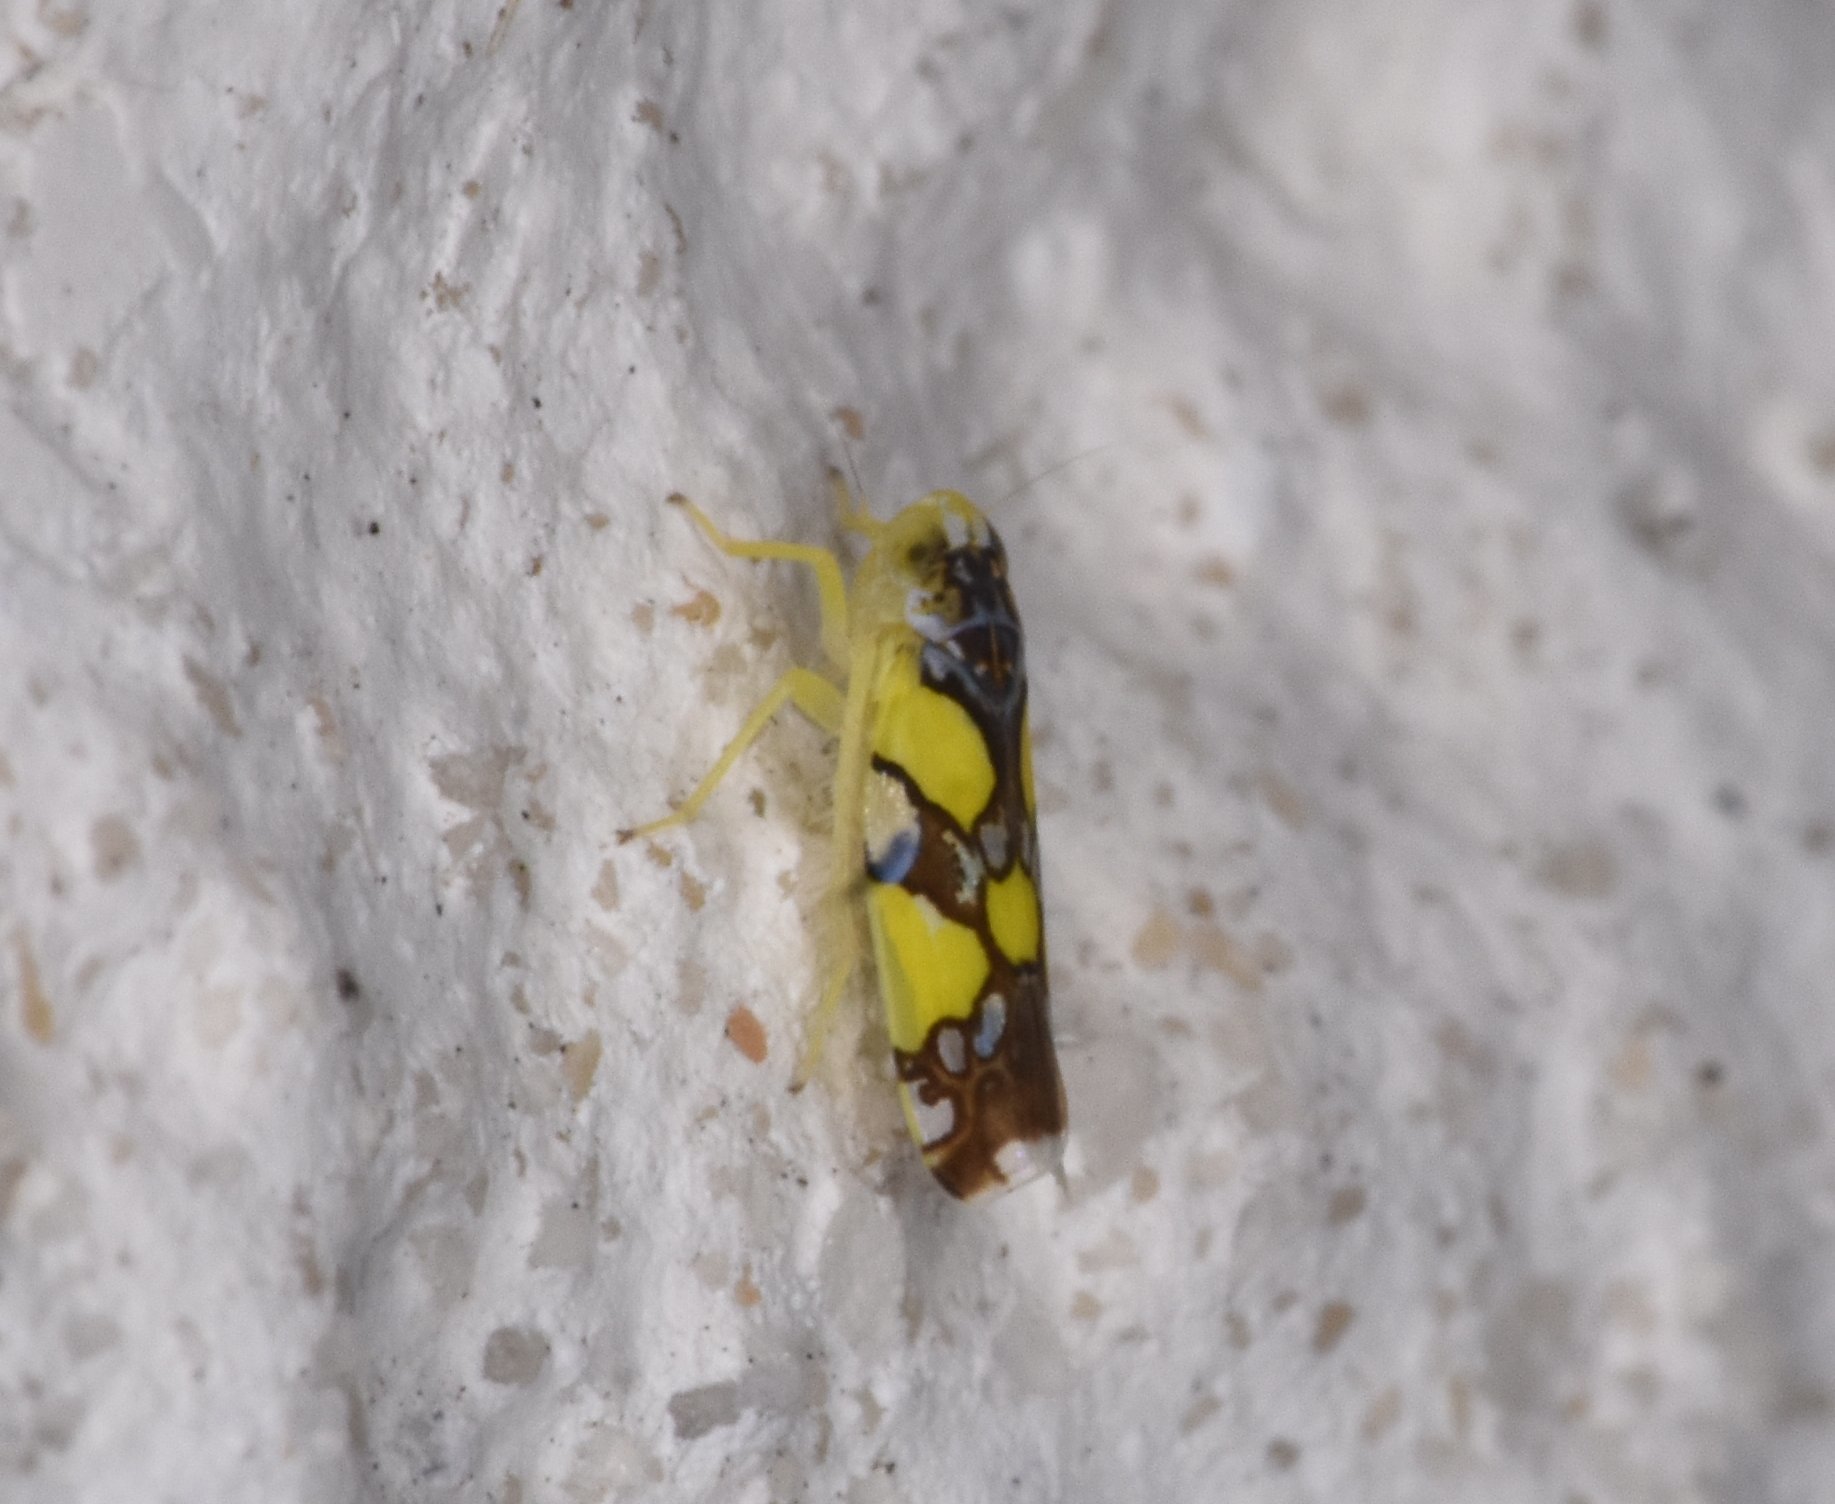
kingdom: Animalia
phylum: Arthropoda
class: Insecta
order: Hemiptera
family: Cicadellidae
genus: Protalebrella
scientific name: Protalebrella brasiliensis
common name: Brasilian leafhopper
